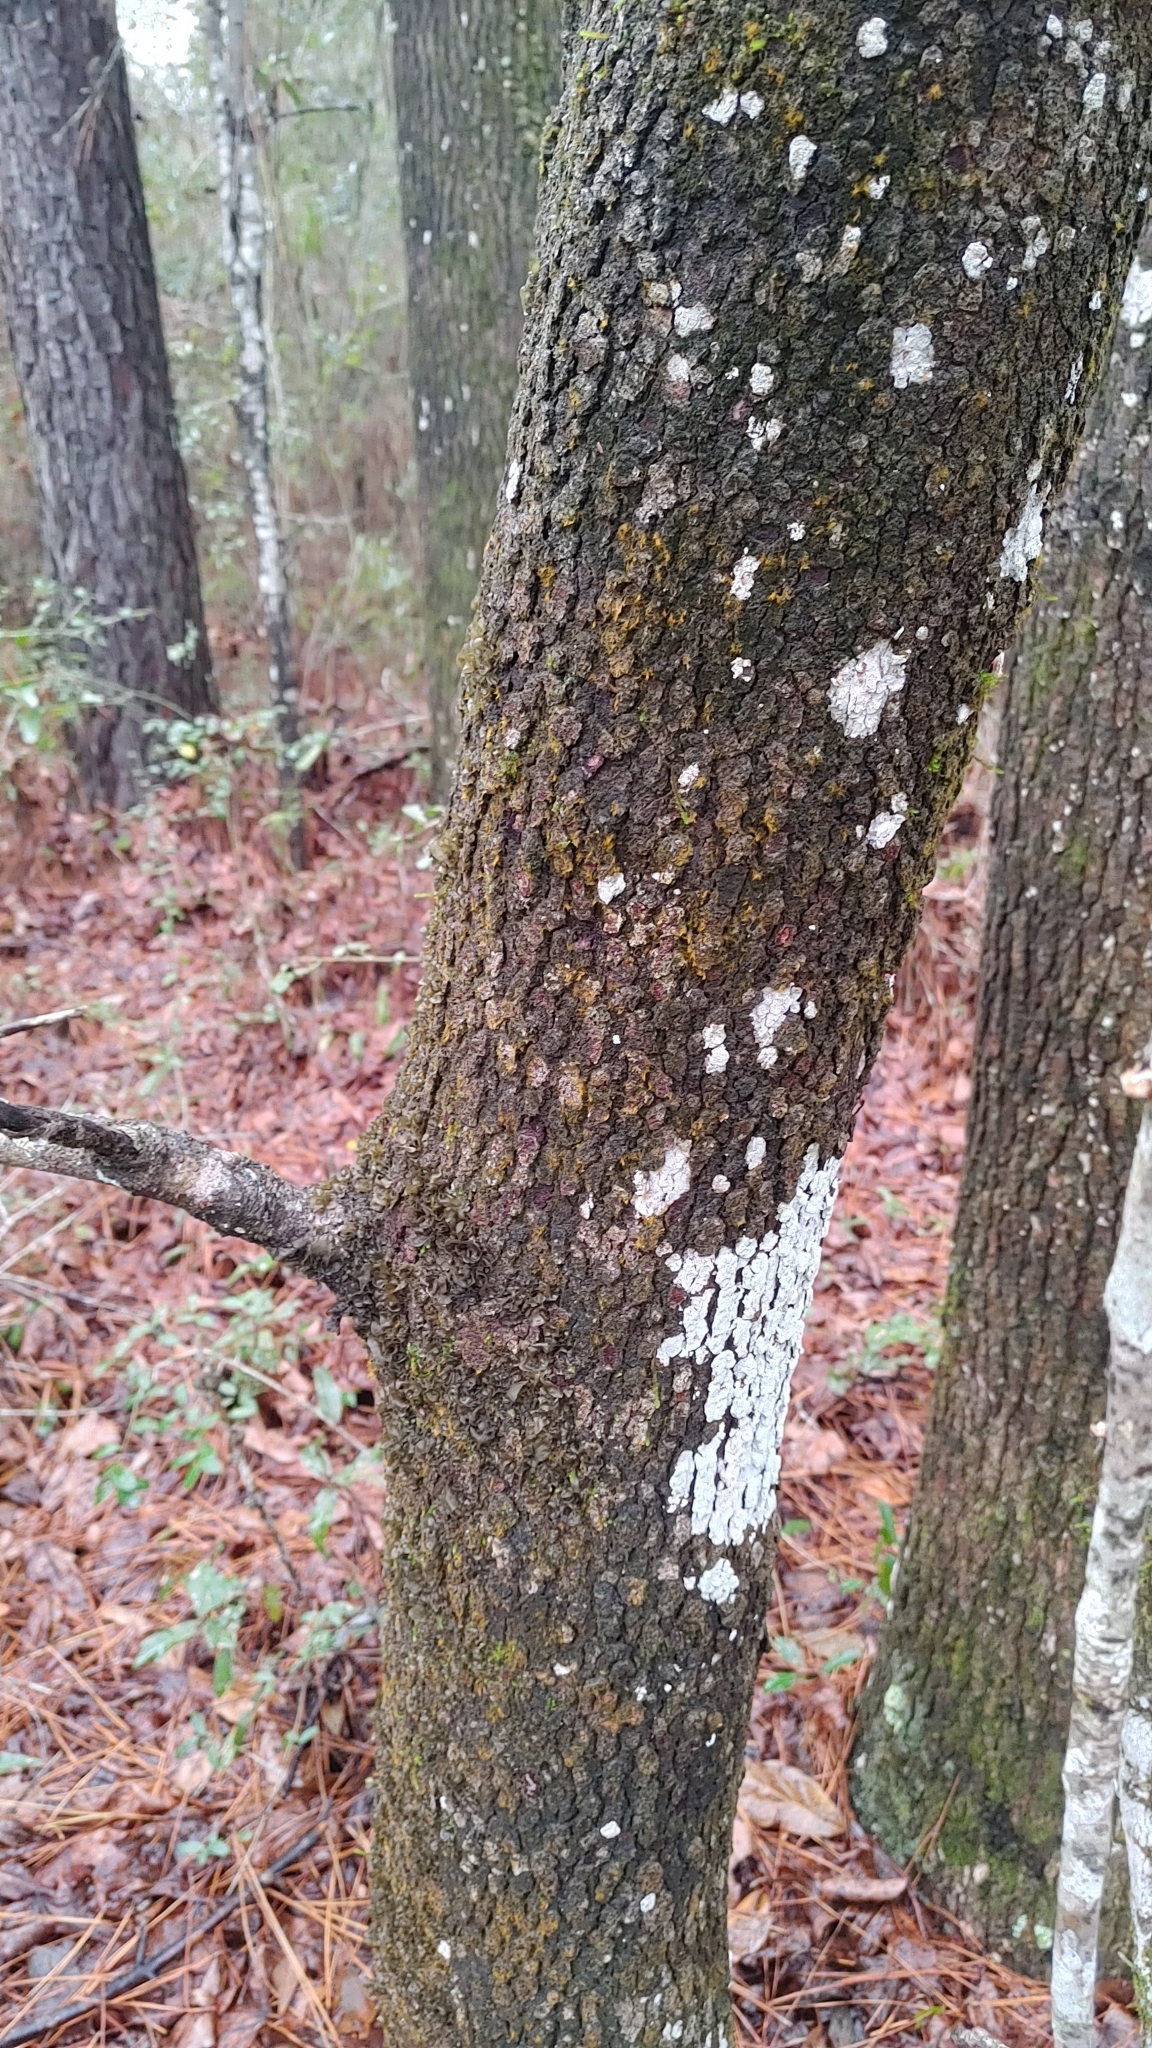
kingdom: Plantae
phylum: Tracheophyta
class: Magnoliopsida
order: Cornales
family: Cornaceae
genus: Cornus
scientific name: Cornus florida
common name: Flowering dogwood
